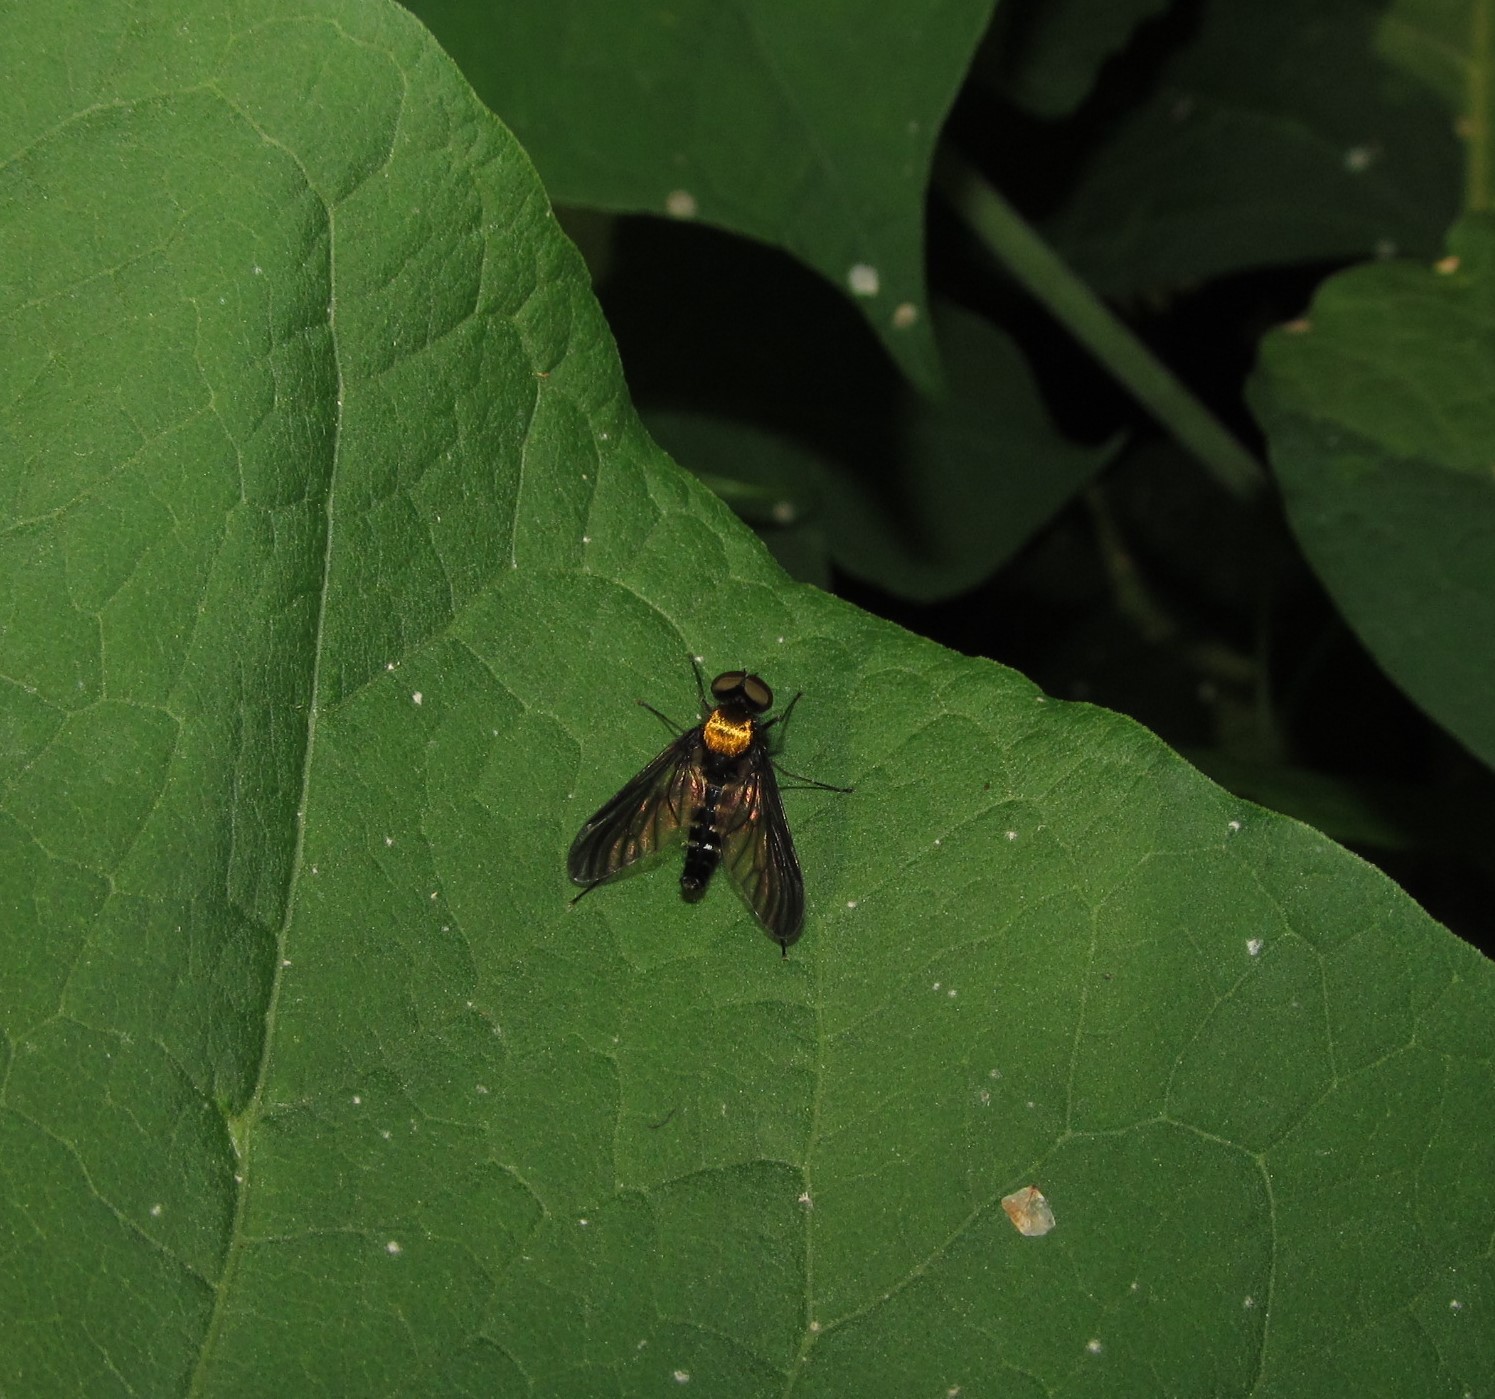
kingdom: Animalia
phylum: Arthropoda
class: Insecta
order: Diptera
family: Rhagionidae
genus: Chrysopilus
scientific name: Chrysopilus thoracicus
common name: Golden-backed snipe fly
